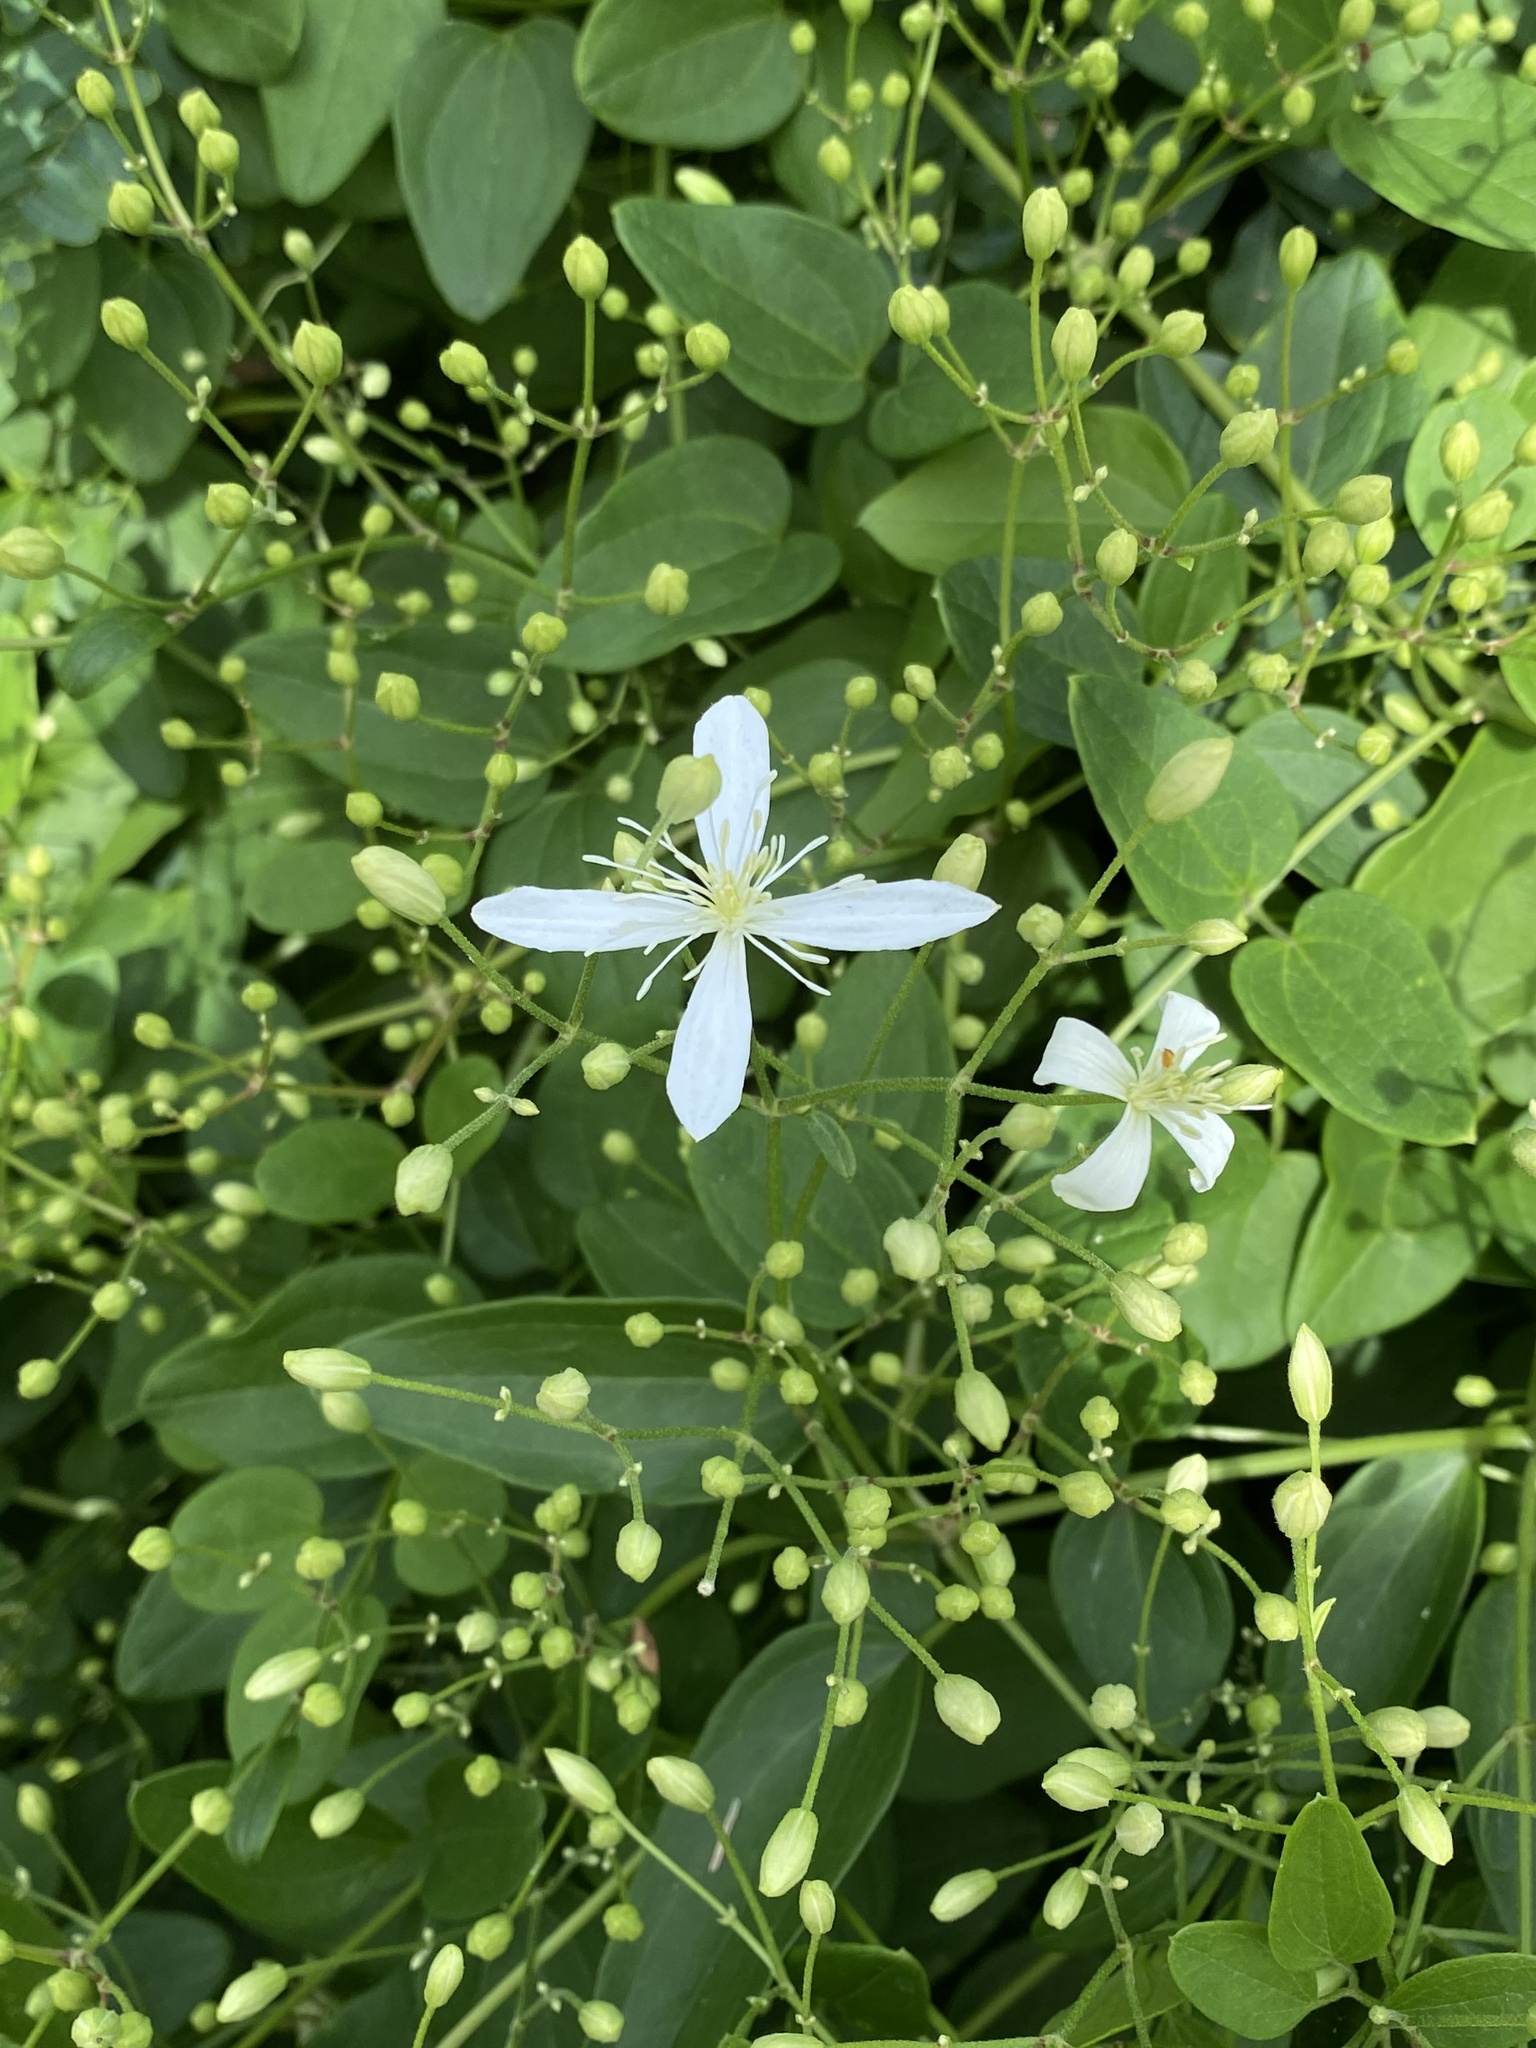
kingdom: Plantae
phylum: Tracheophyta
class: Magnoliopsida
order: Ranunculales
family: Ranunculaceae
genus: Clematis
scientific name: Clematis terniflora
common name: Sweet autumn clematis
